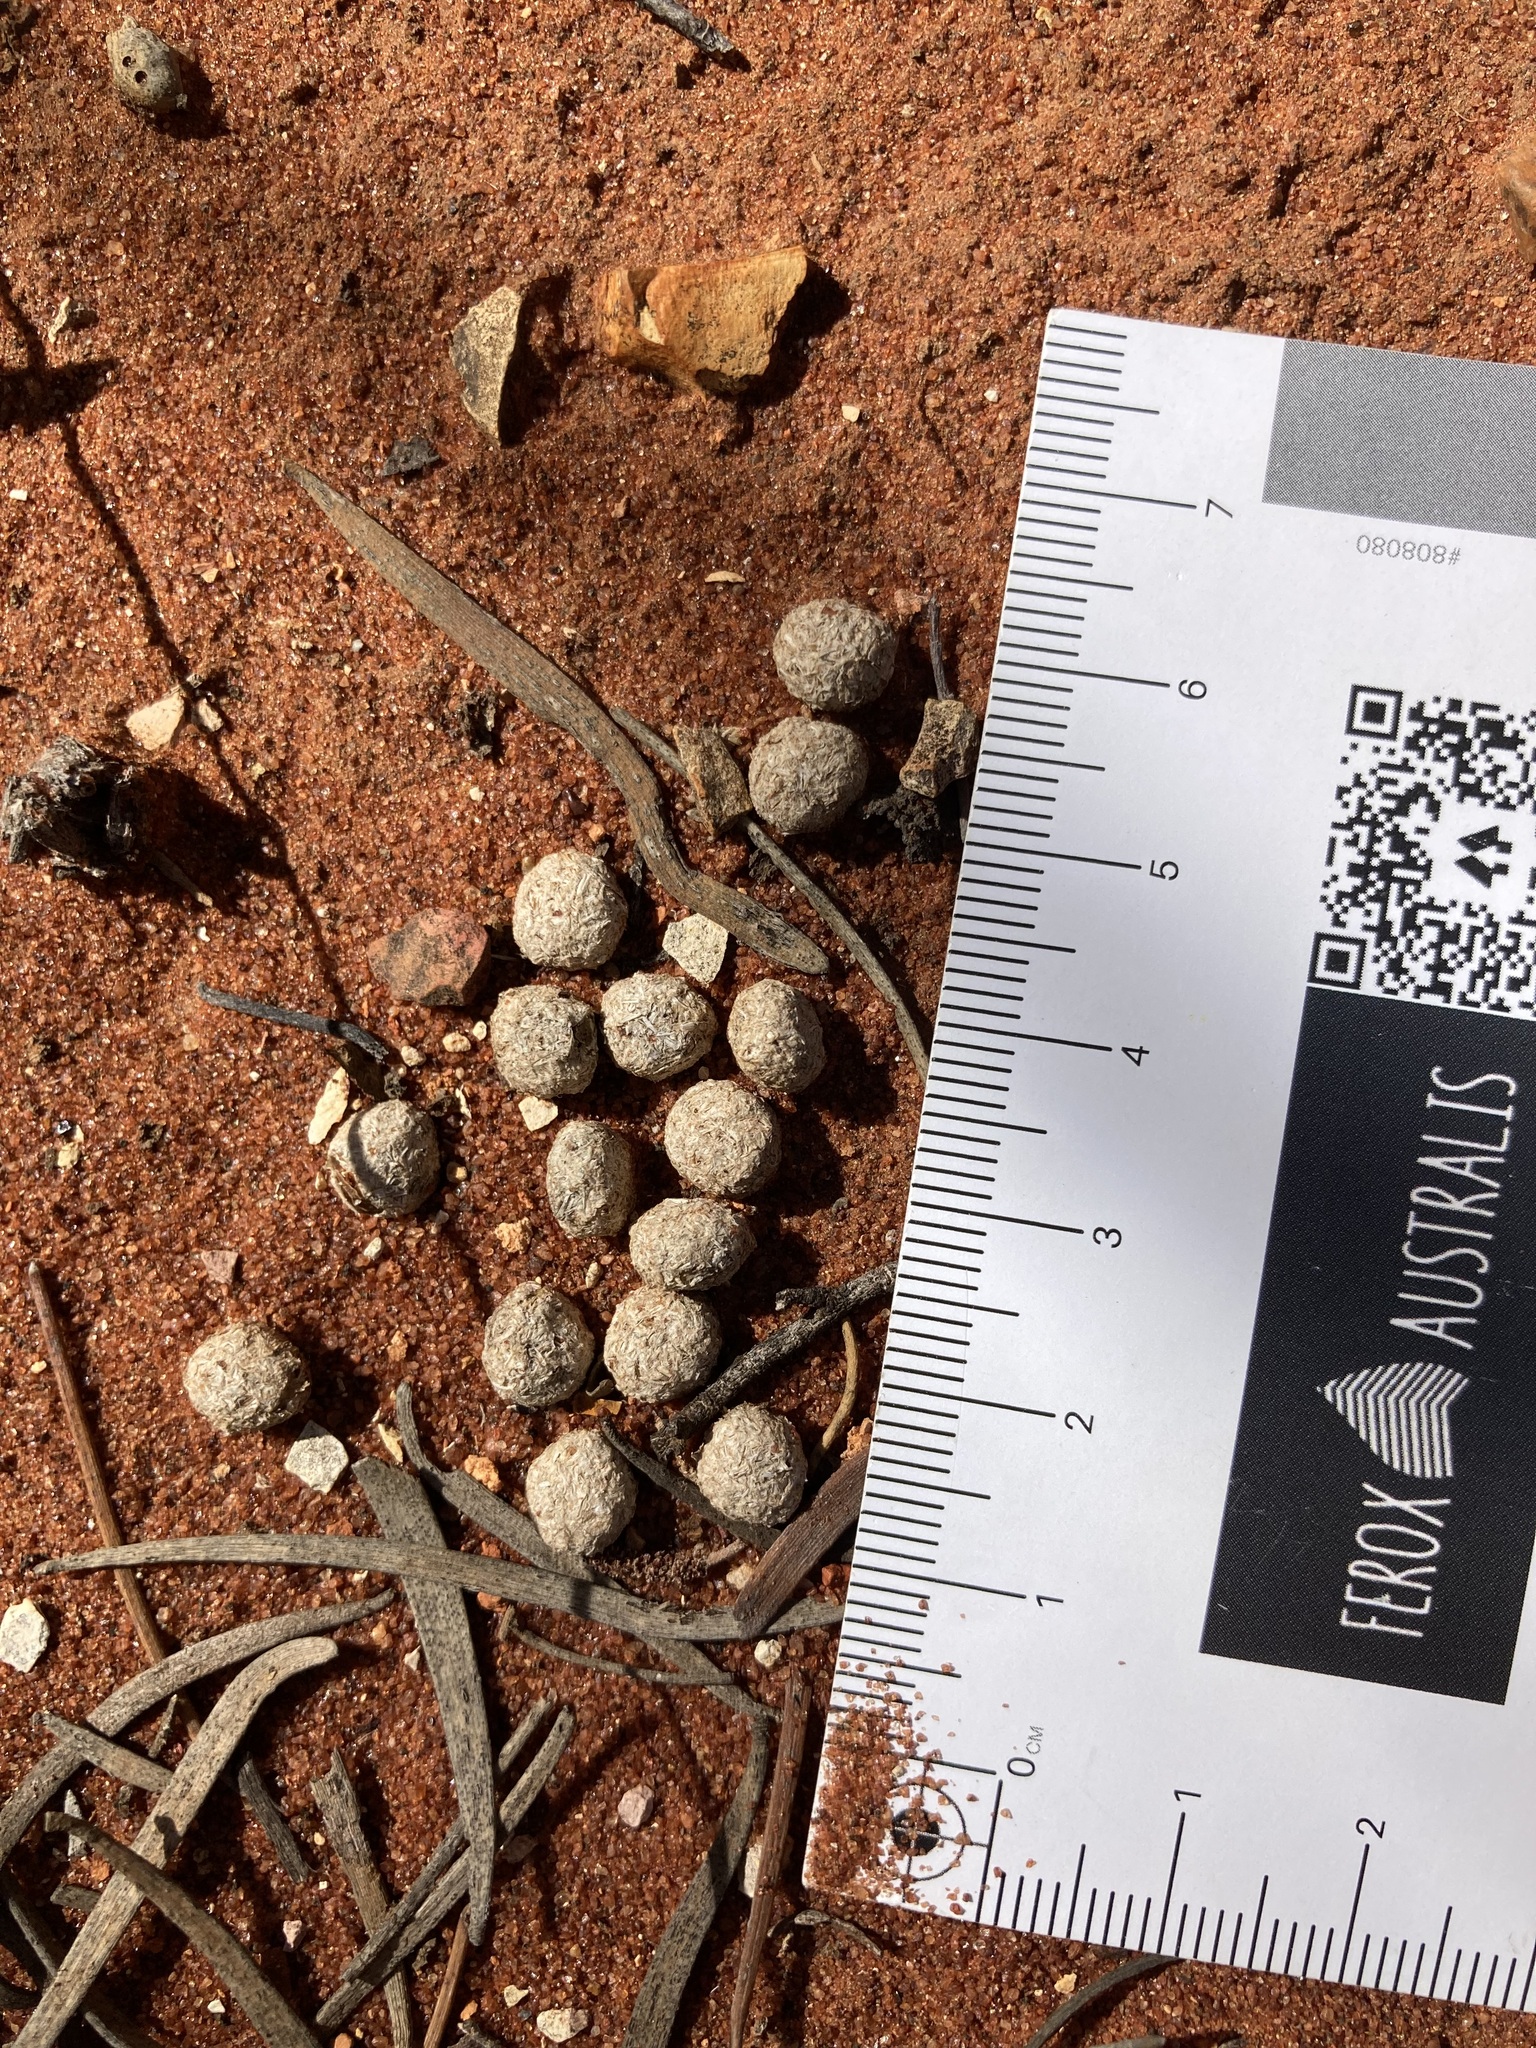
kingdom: Animalia
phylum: Chordata
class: Mammalia
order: Lagomorpha
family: Leporidae
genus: Oryctolagus
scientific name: Oryctolagus cuniculus
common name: European rabbit
